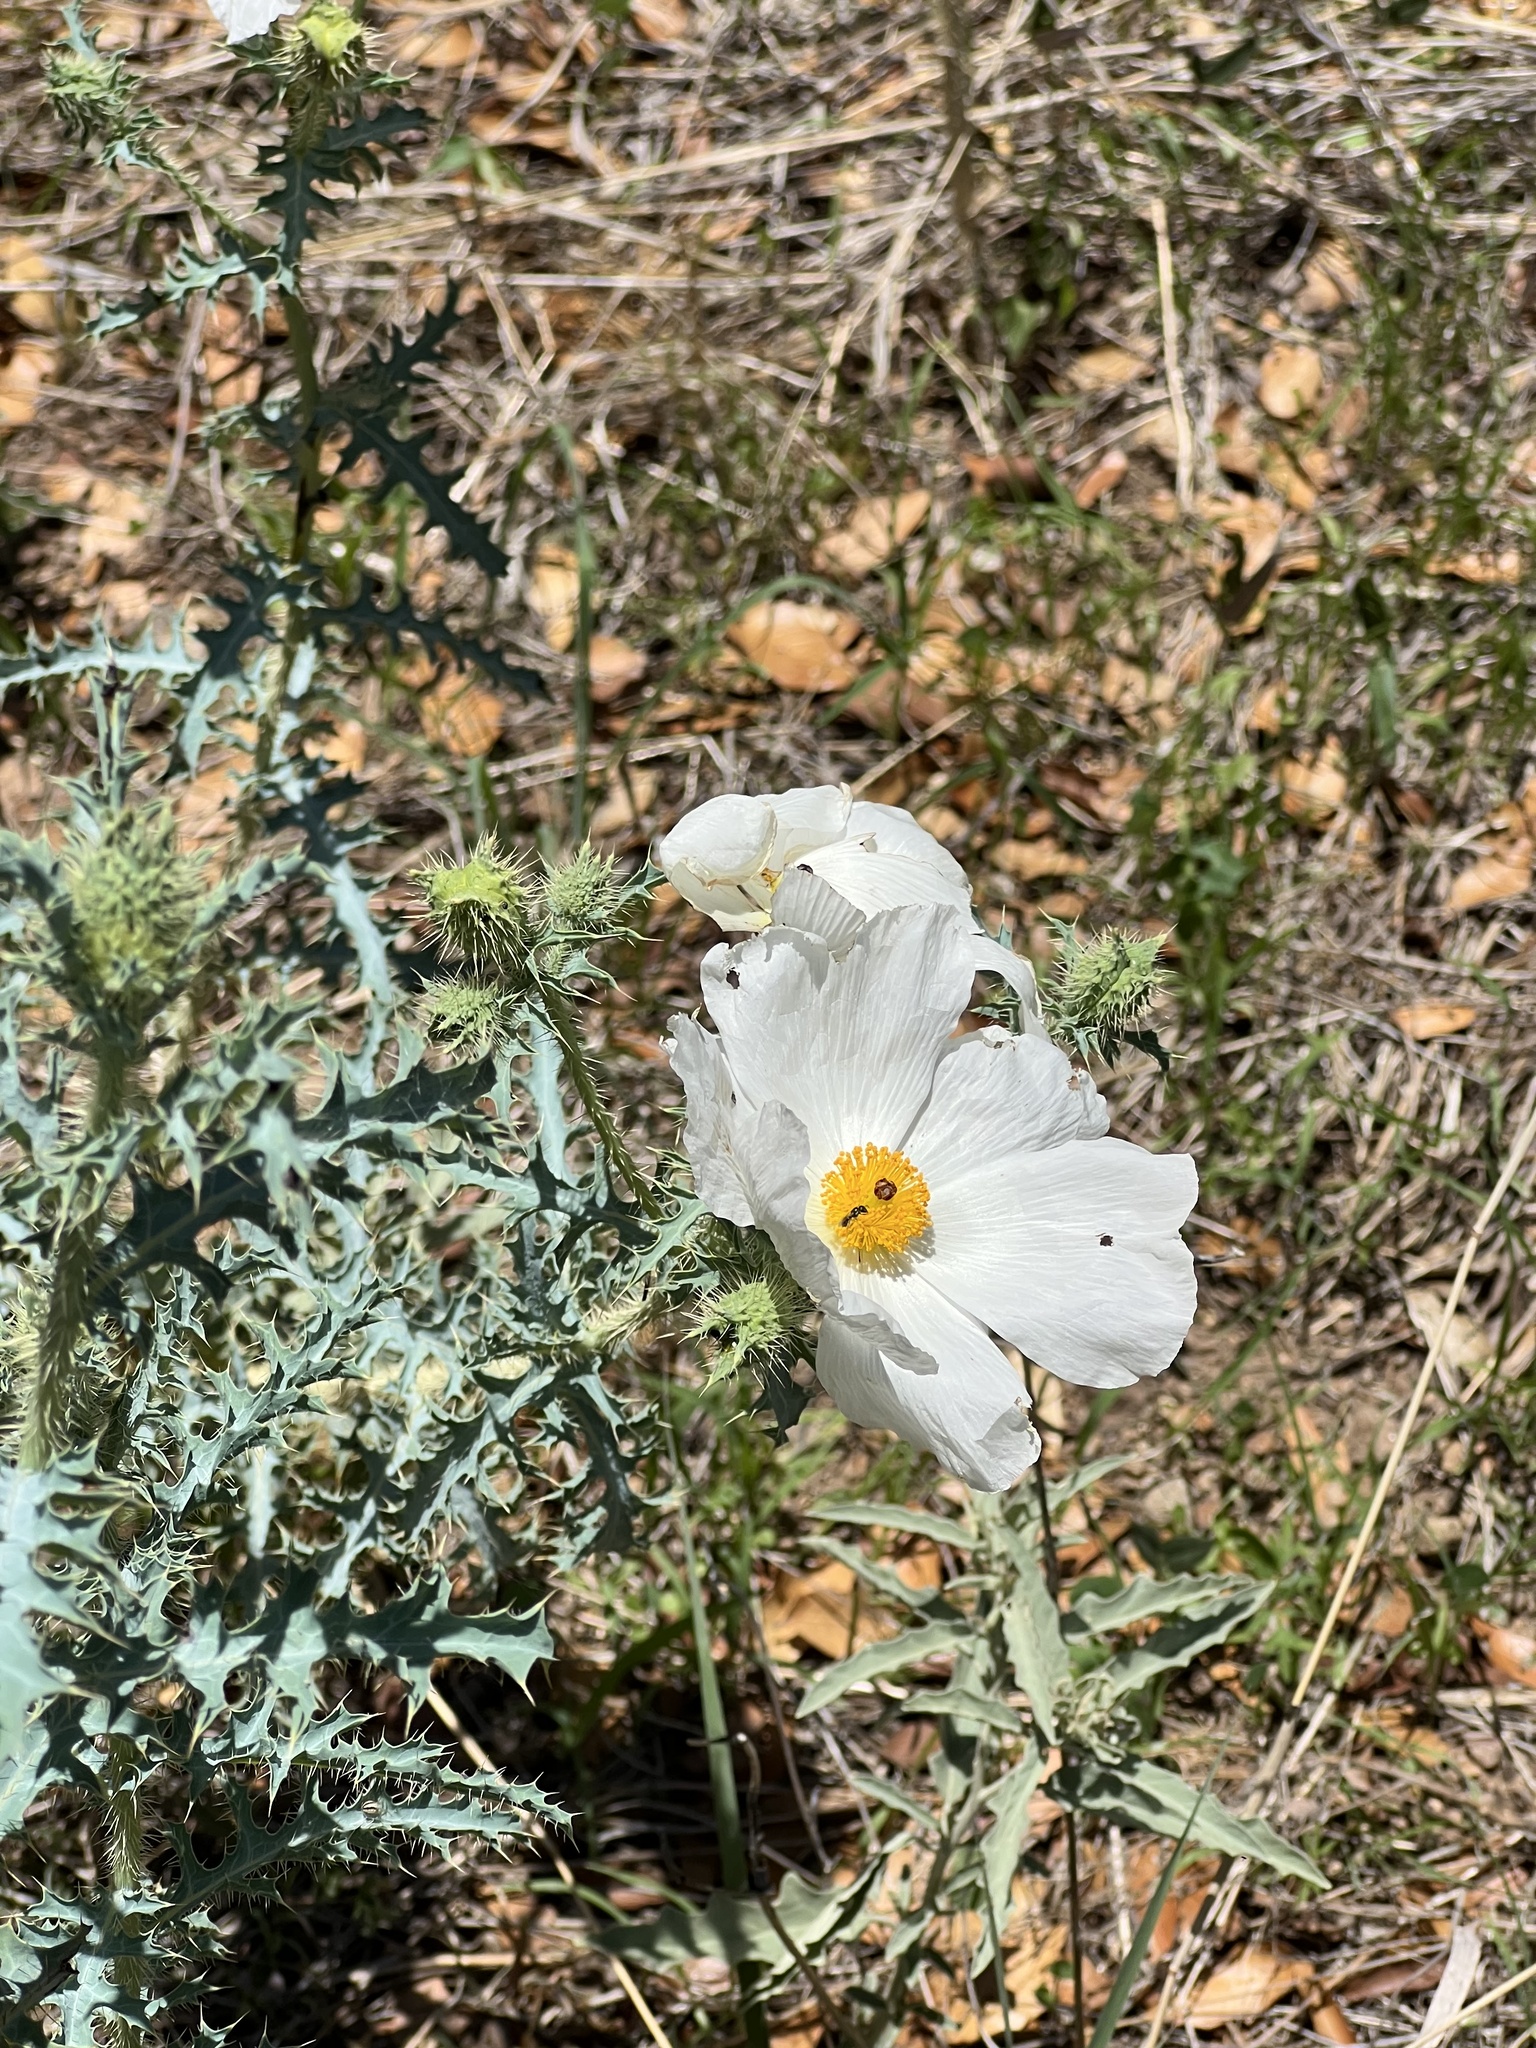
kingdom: Plantae
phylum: Tracheophyta
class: Magnoliopsida
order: Ranunculales
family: Papaveraceae
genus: Argemone
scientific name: Argemone pleiacantha
